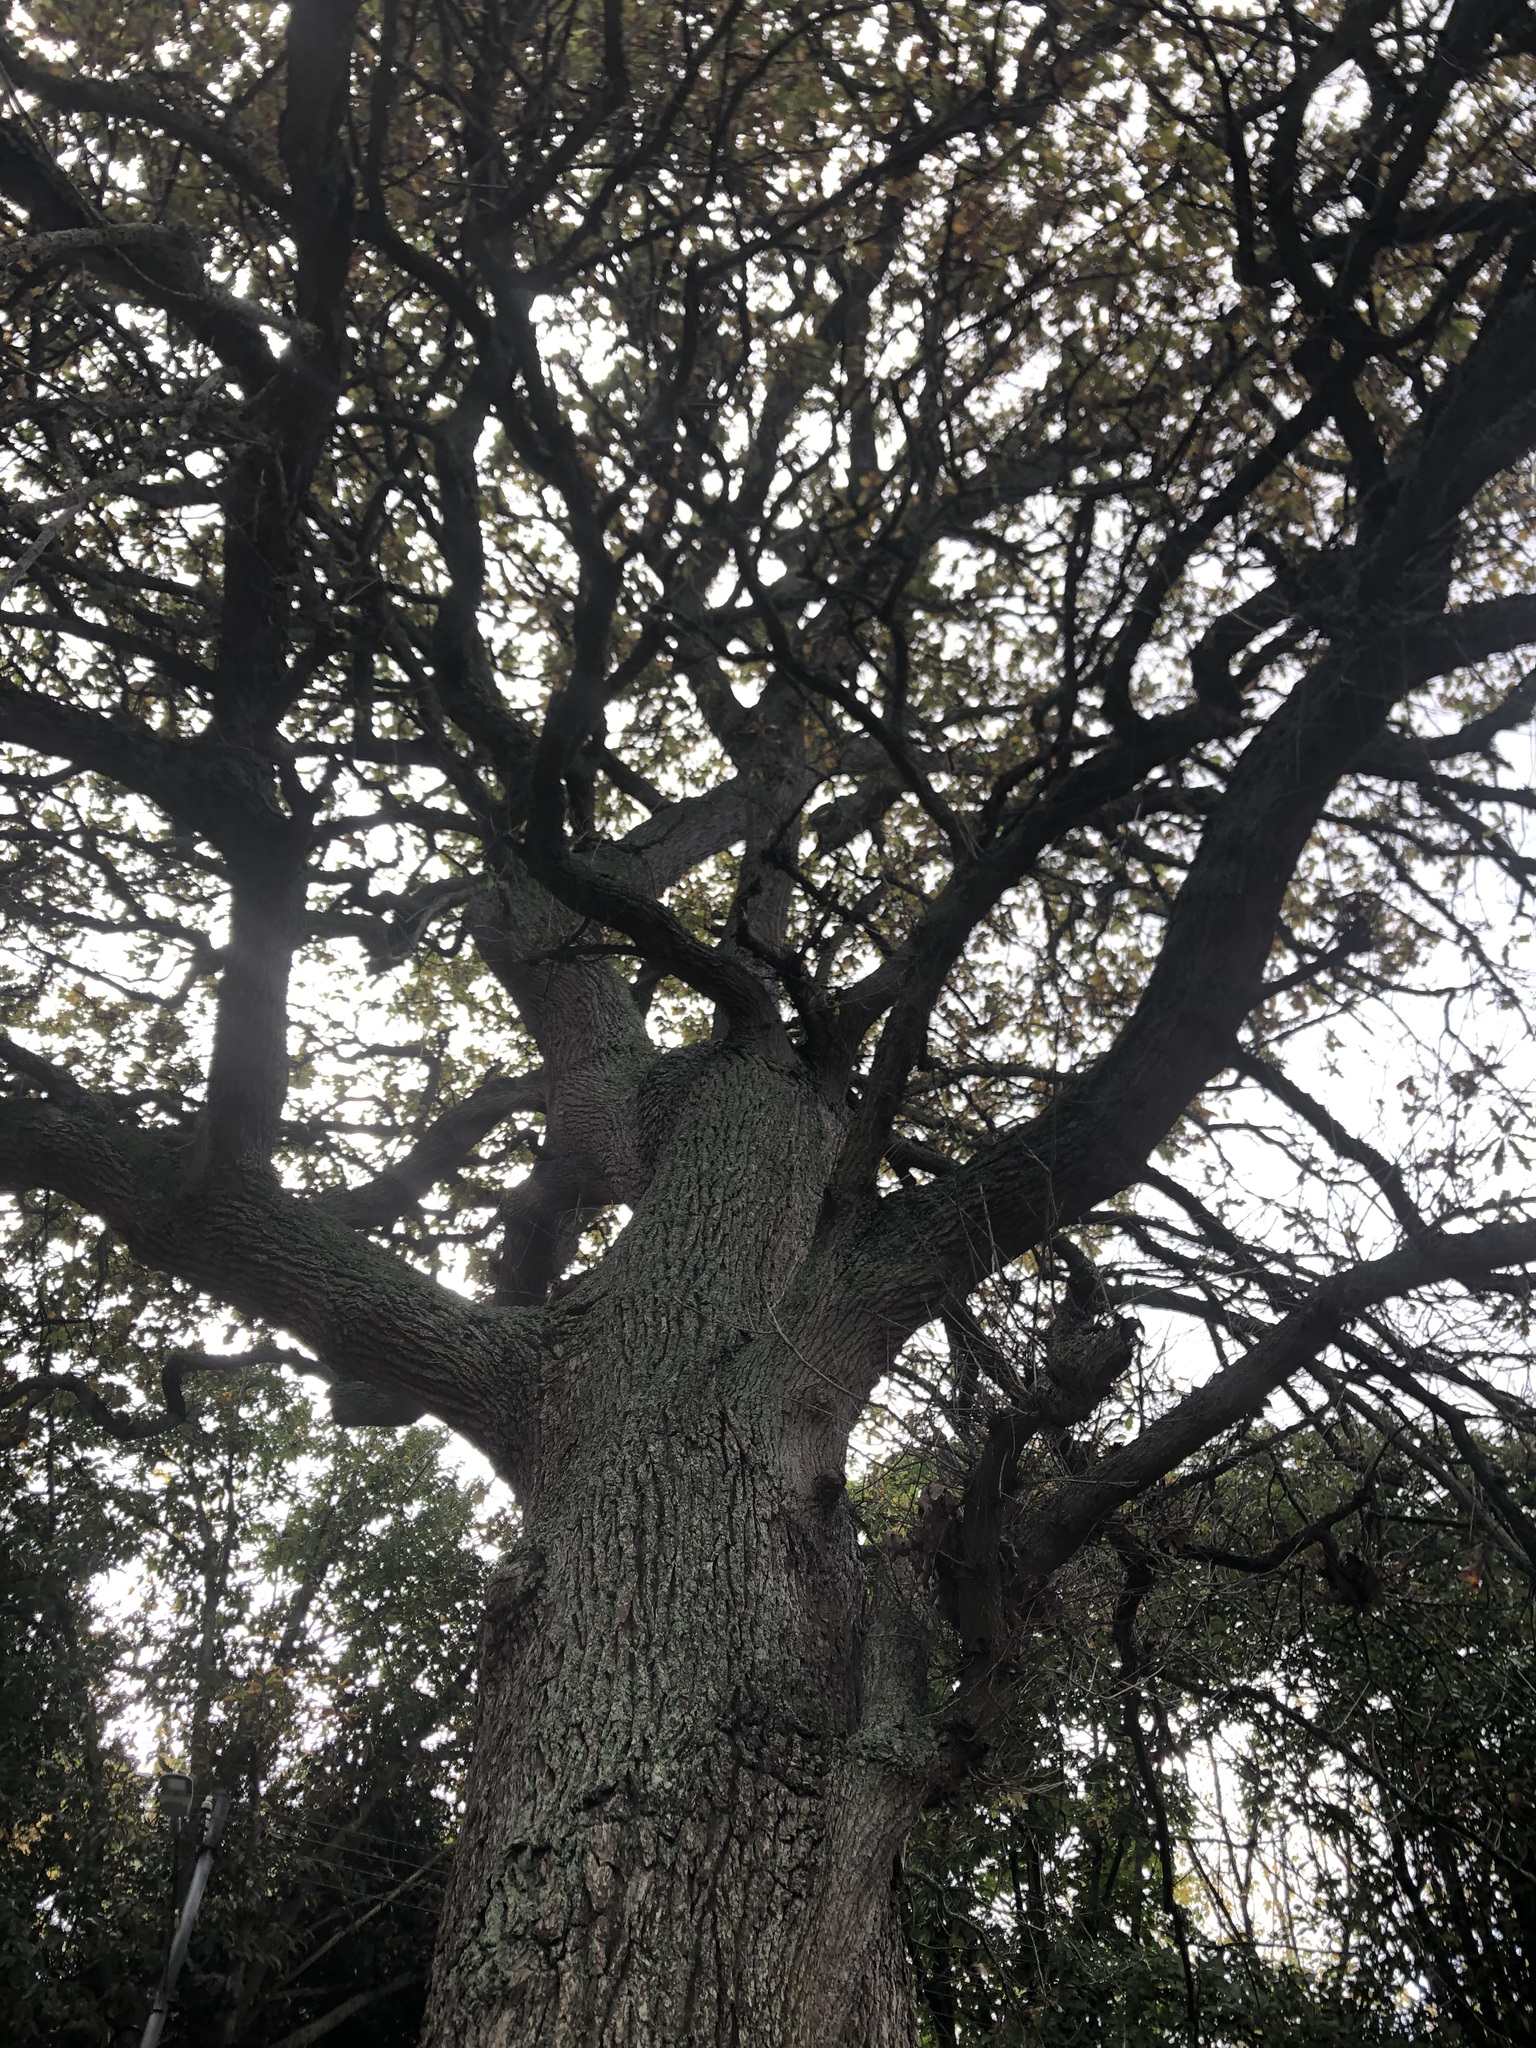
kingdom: Plantae
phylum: Tracheophyta
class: Magnoliopsida
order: Fagales
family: Fagaceae
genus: Quercus
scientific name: Quercus robur
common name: Pedunculate oak
